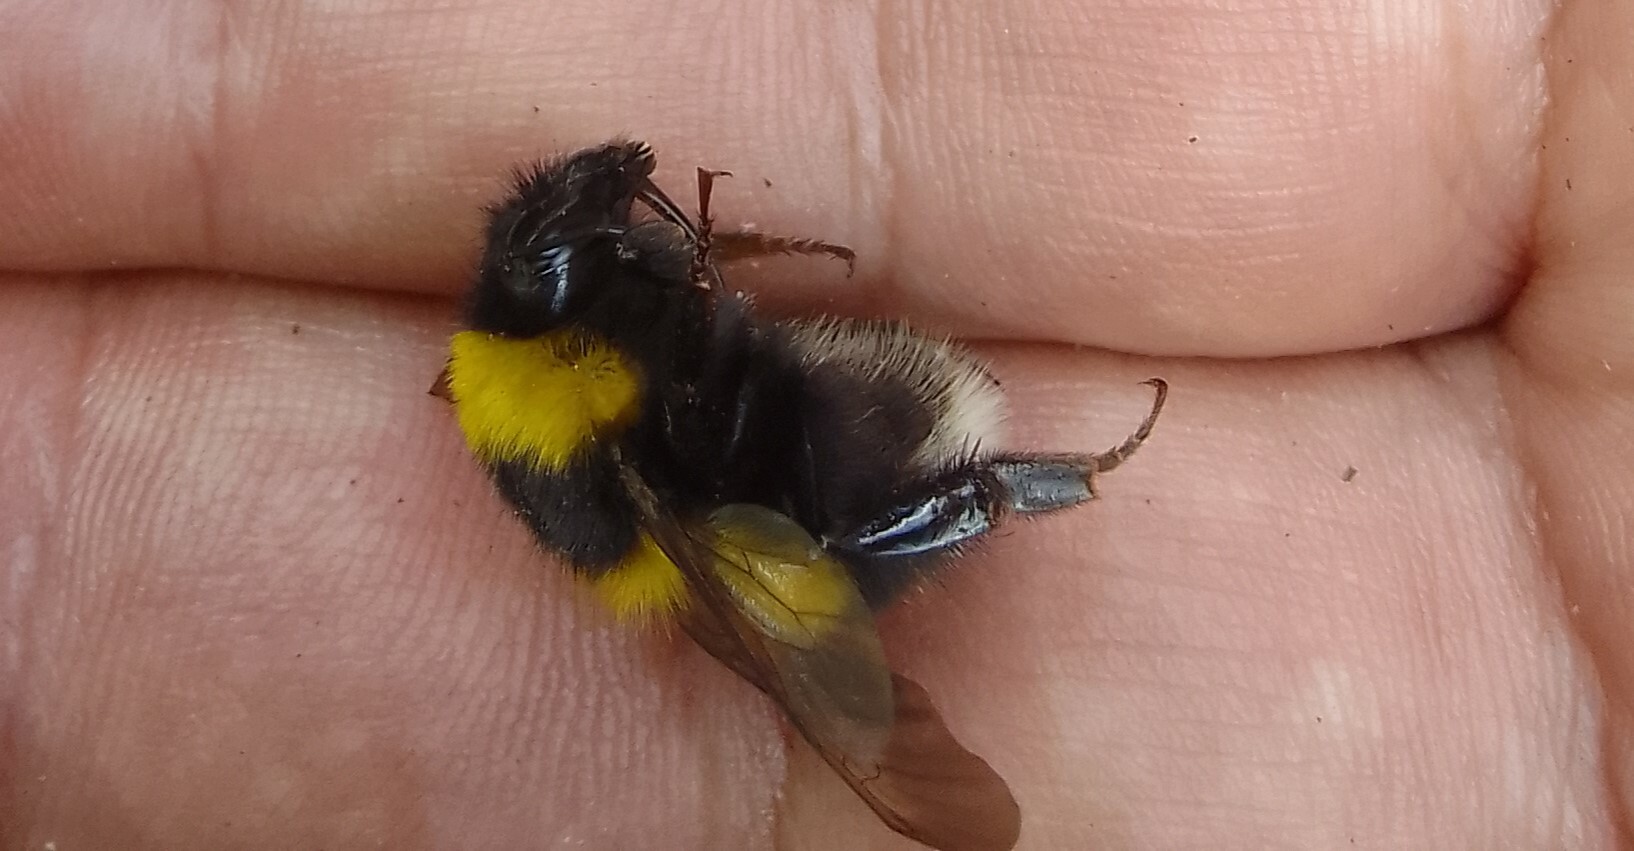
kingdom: Animalia
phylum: Arthropoda
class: Insecta
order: Hymenoptera
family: Apidae
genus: Bombus
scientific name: Bombus hortorum
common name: Garden bumblebee
